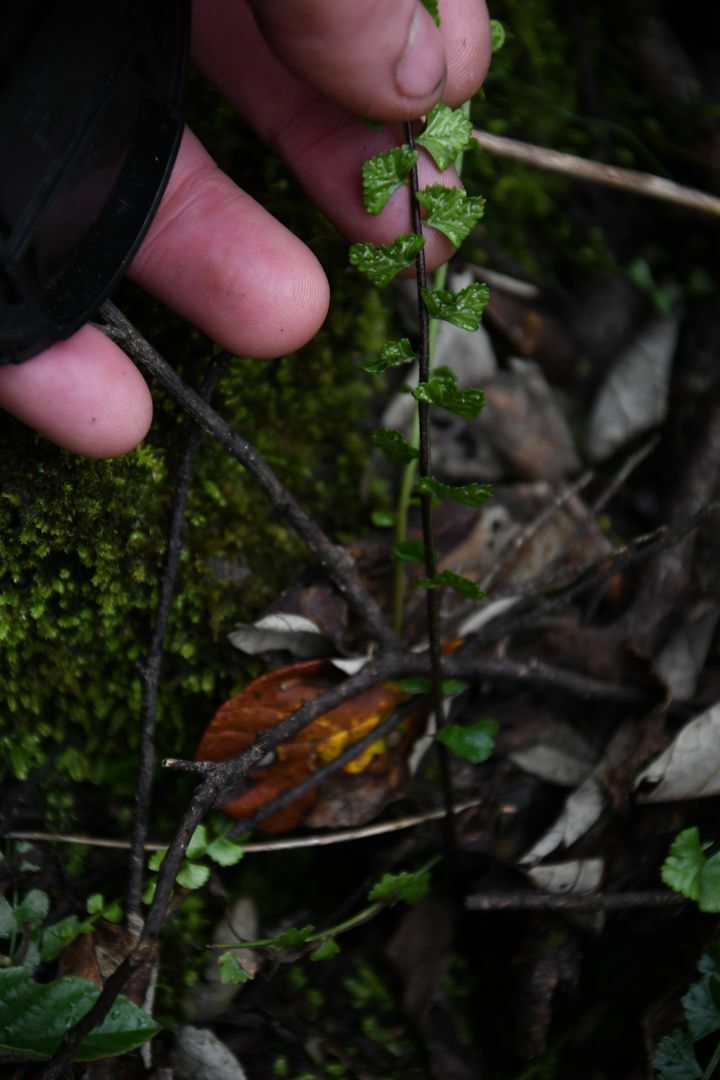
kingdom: Plantae
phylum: Tracheophyta
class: Polypodiopsida
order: Polypodiales
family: Lindsaeaceae
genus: Lindsaea
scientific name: Lindsaea linearis
